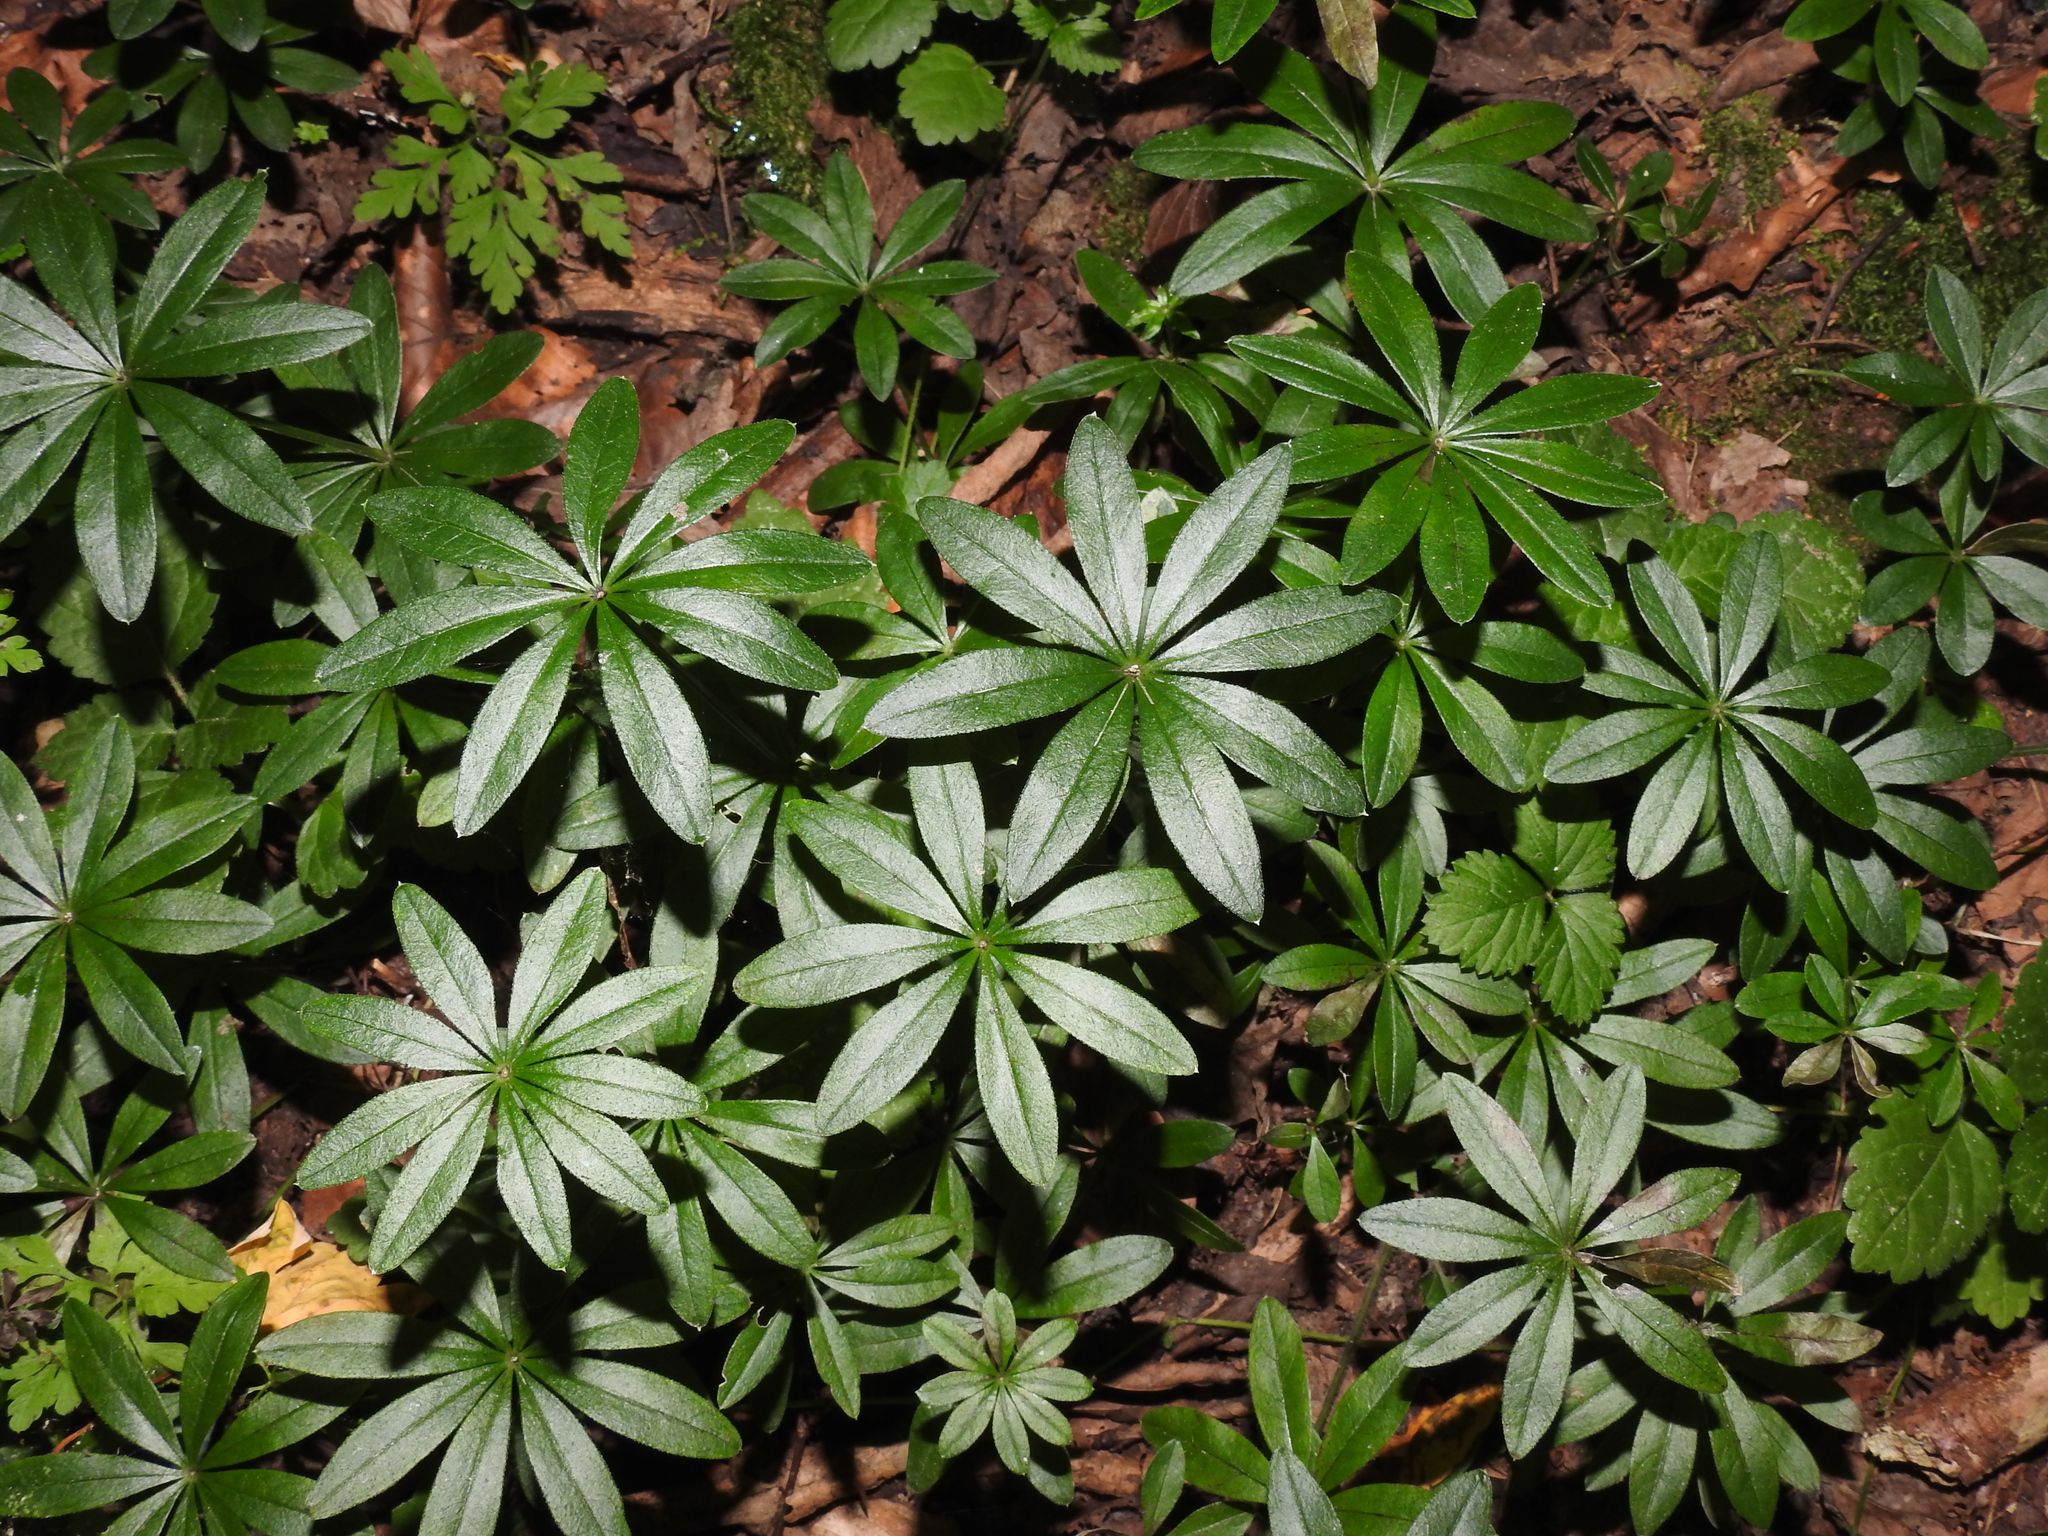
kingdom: Plantae
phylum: Tracheophyta
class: Magnoliopsida
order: Gentianales
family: Rubiaceae
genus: Galium
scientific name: Galium odoratum
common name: Sweet woodruff
